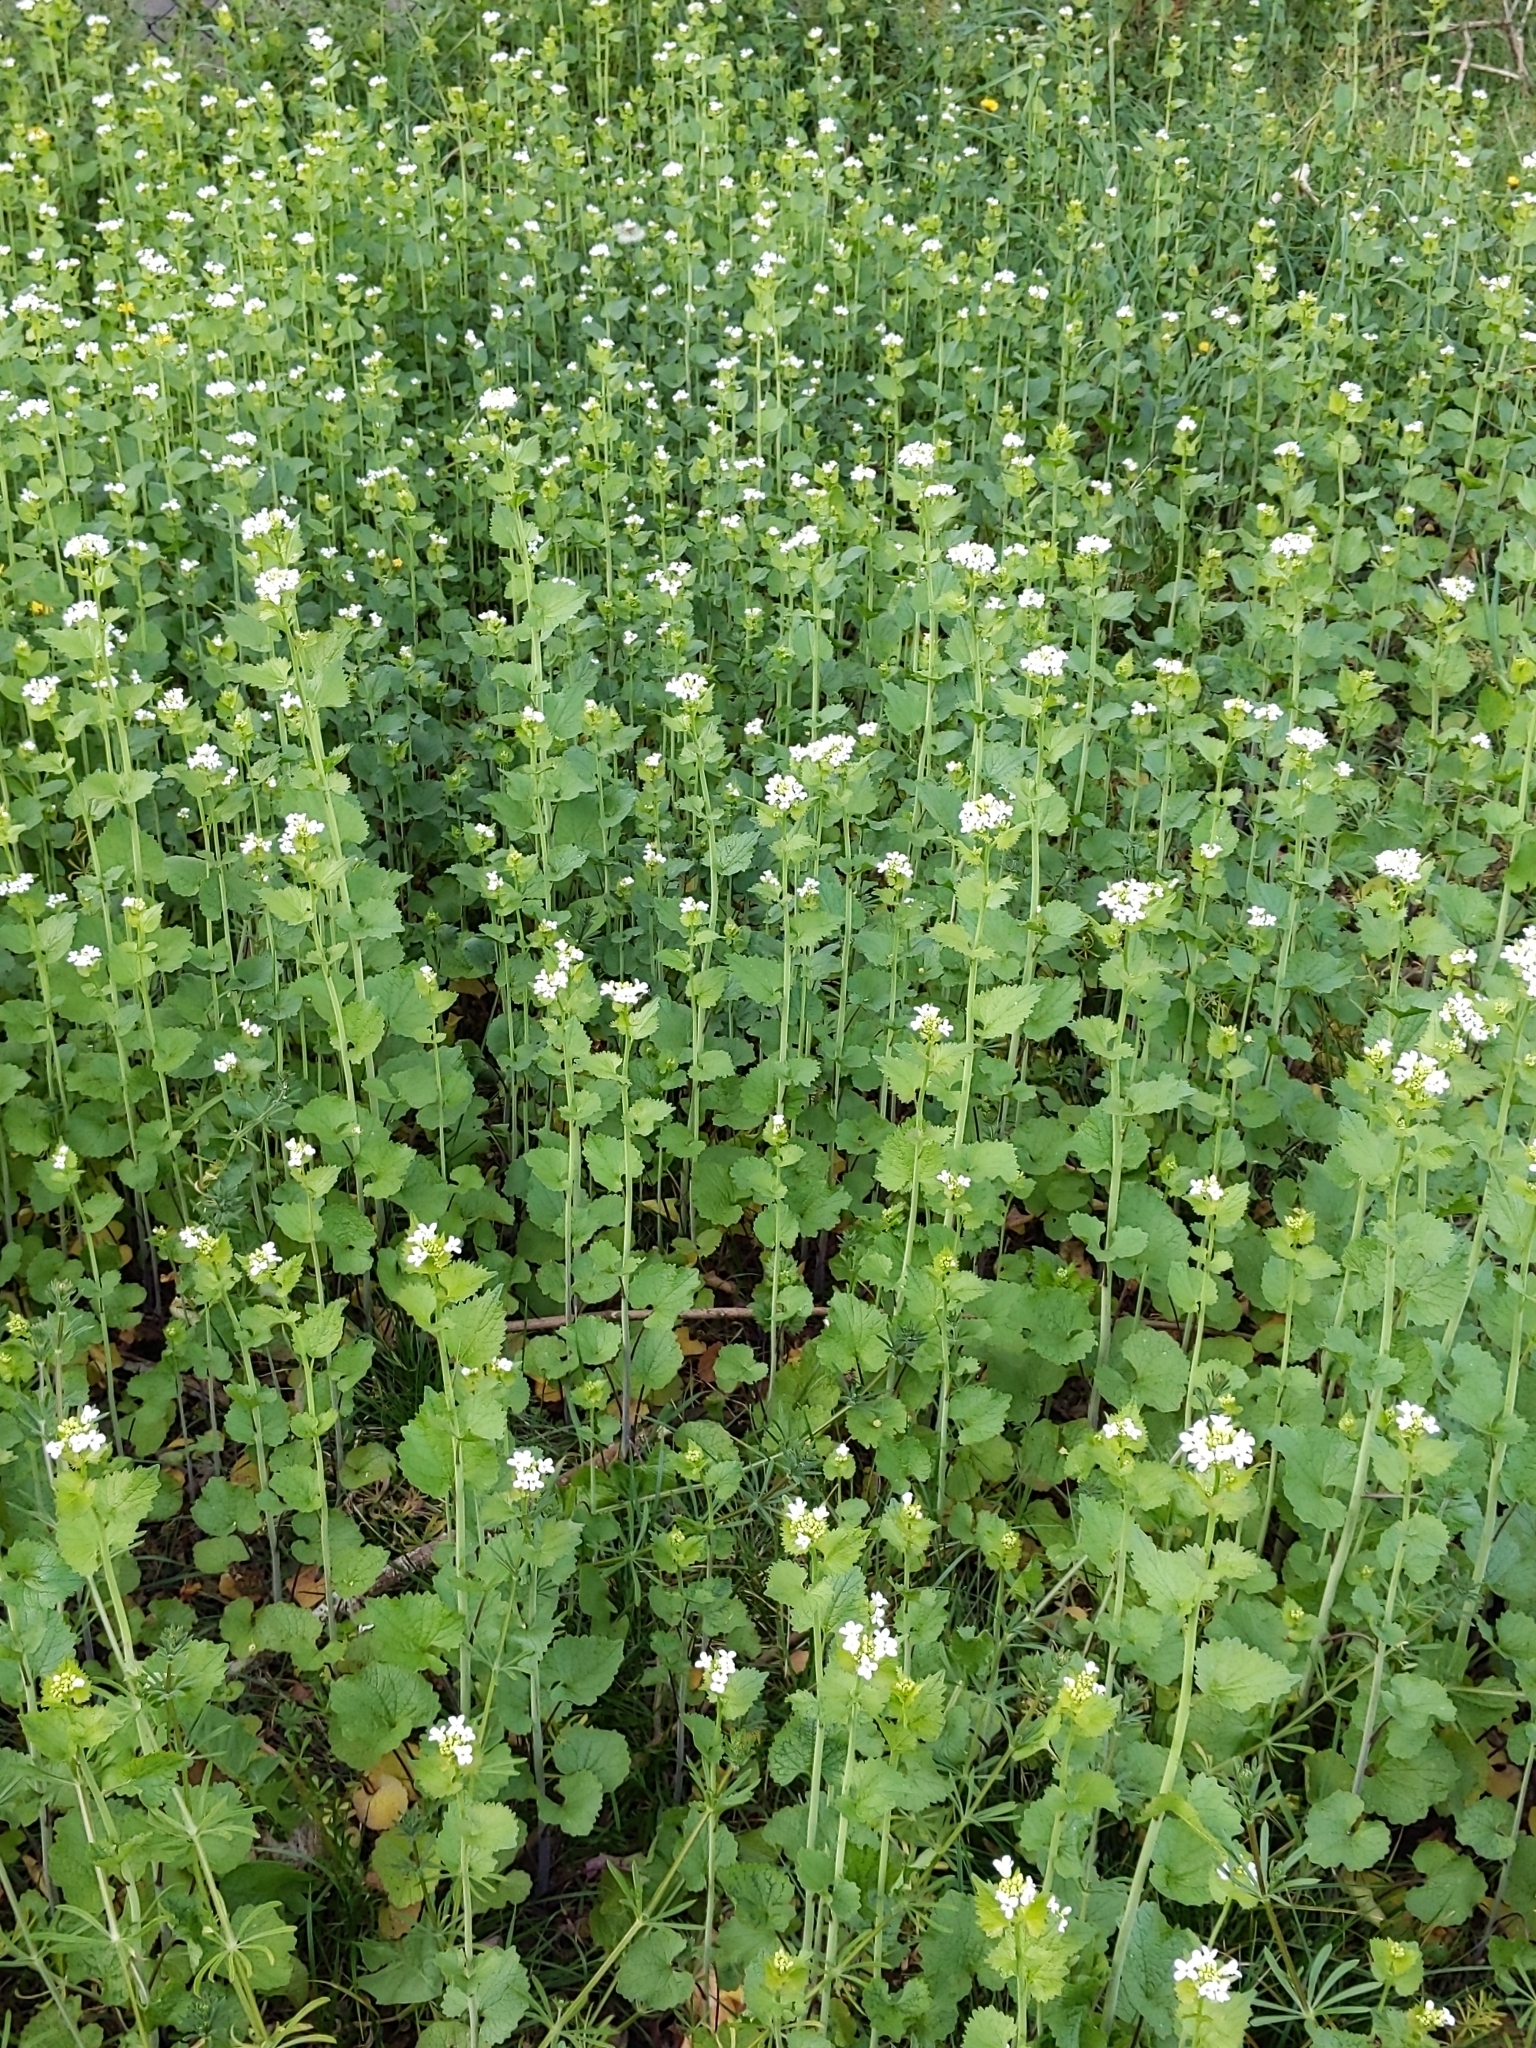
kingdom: Plantae
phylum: Tracheophyta
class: Magnoliopsida
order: Brassicales
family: Brassicaceae
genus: Alliaria
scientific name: Alliaria petiolata
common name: Garlic mustard
